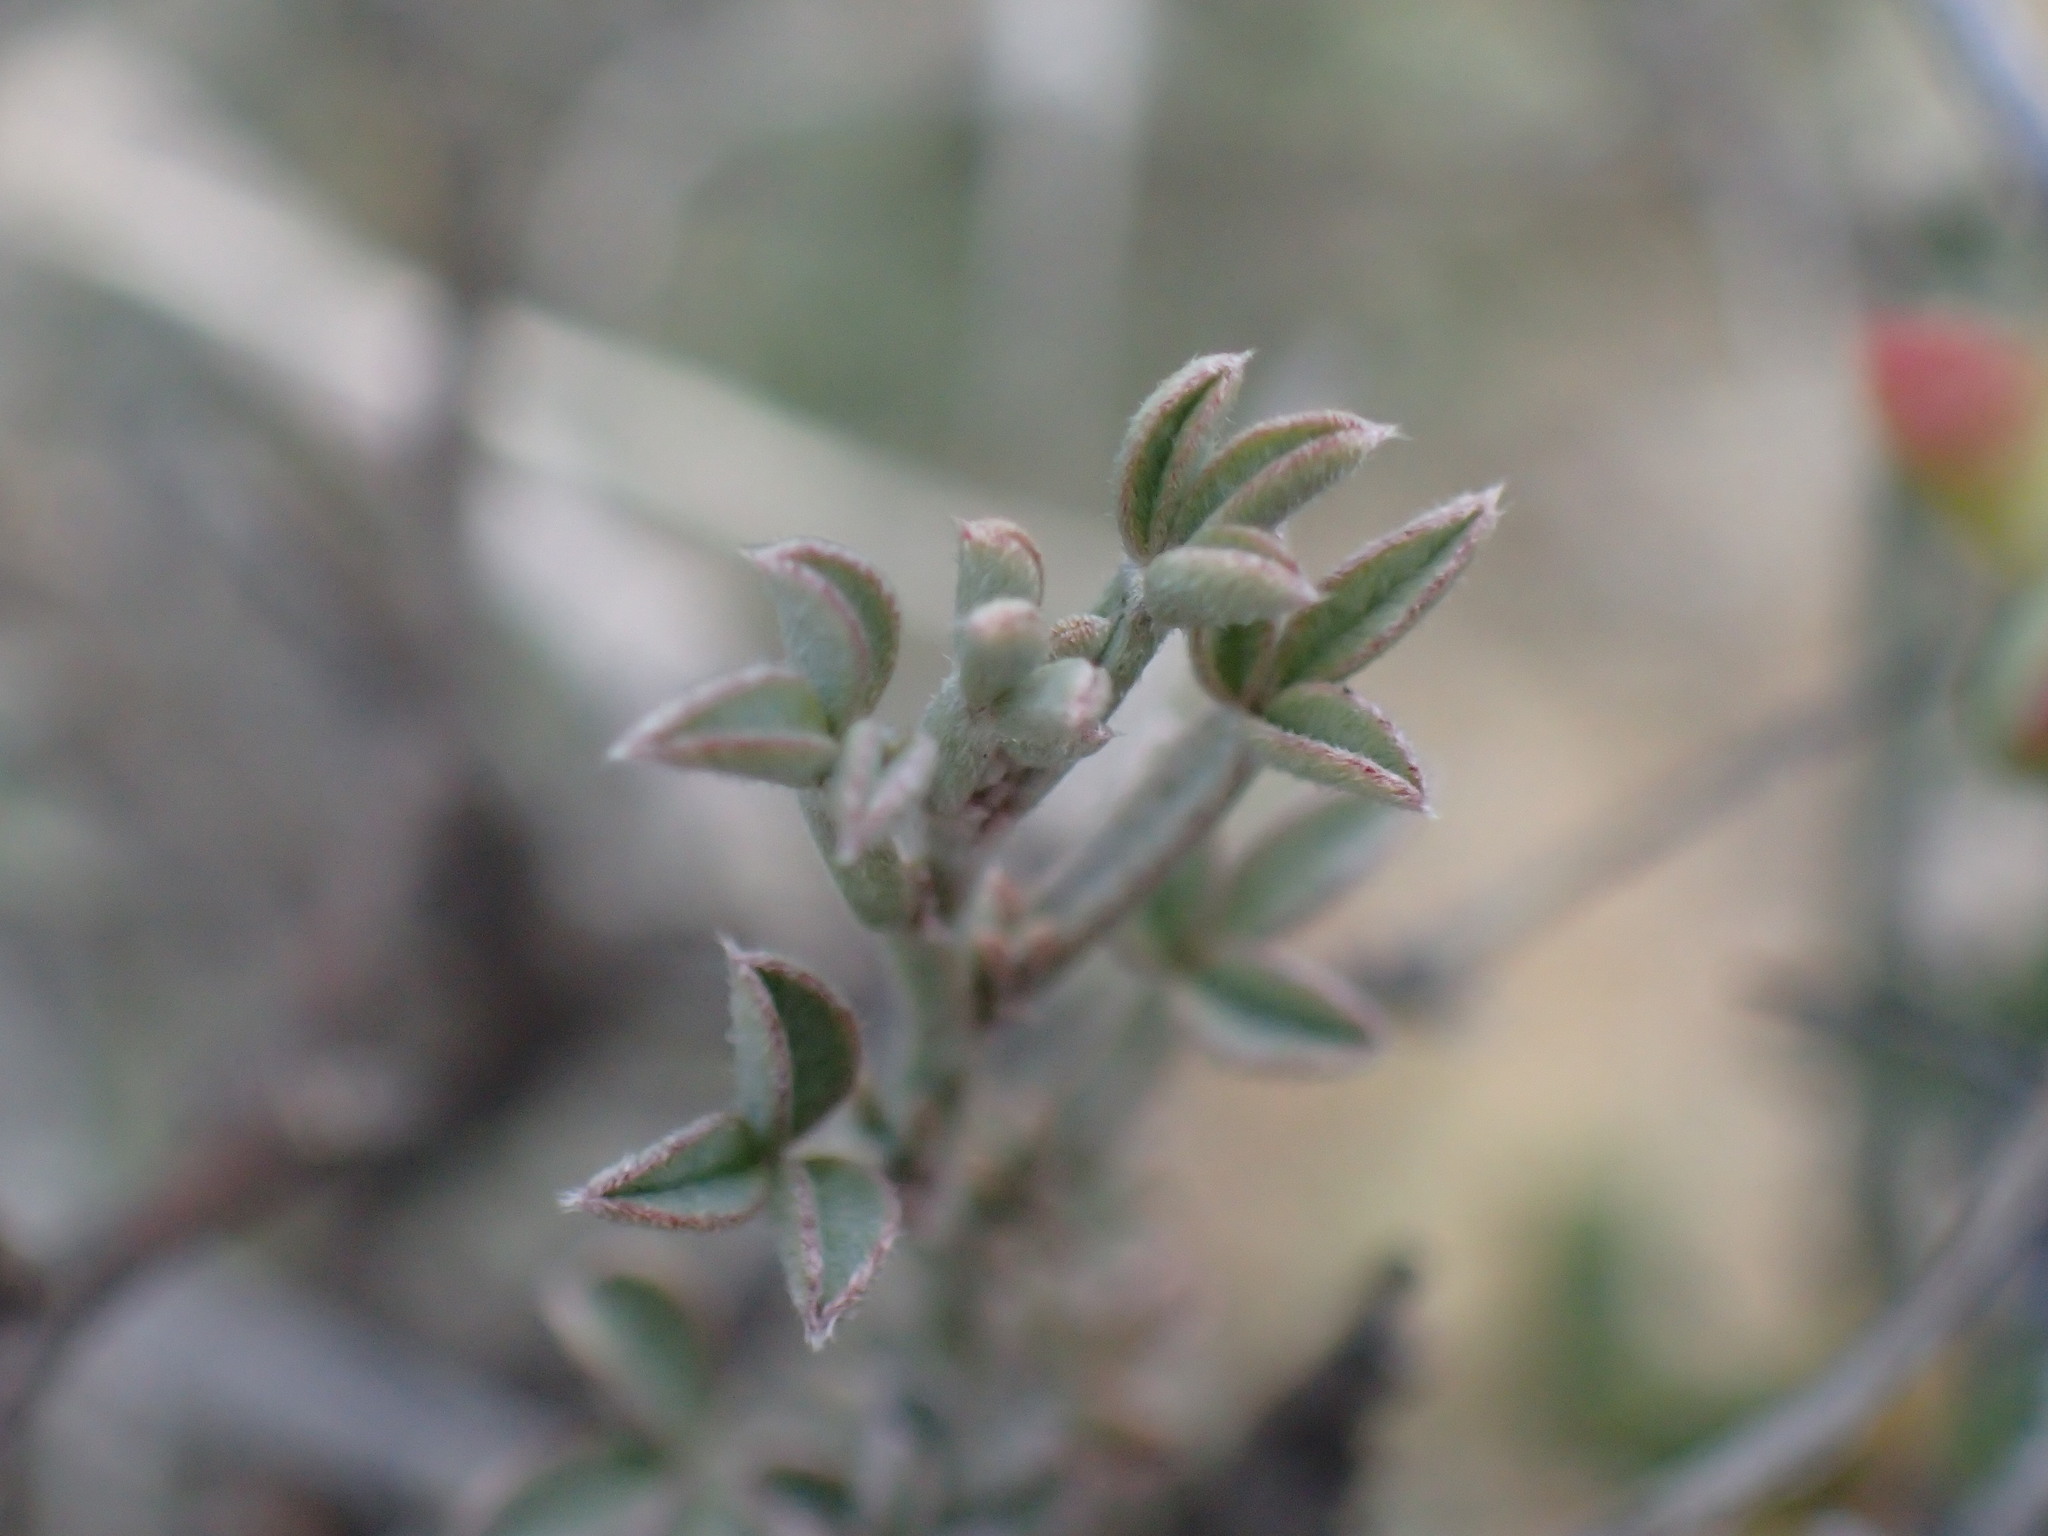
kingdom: Plantae
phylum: Tracheophyta
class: Magnoliopsida
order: Fabales
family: Fabaceae
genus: Indigofera
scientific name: Indigofera meyeriana
